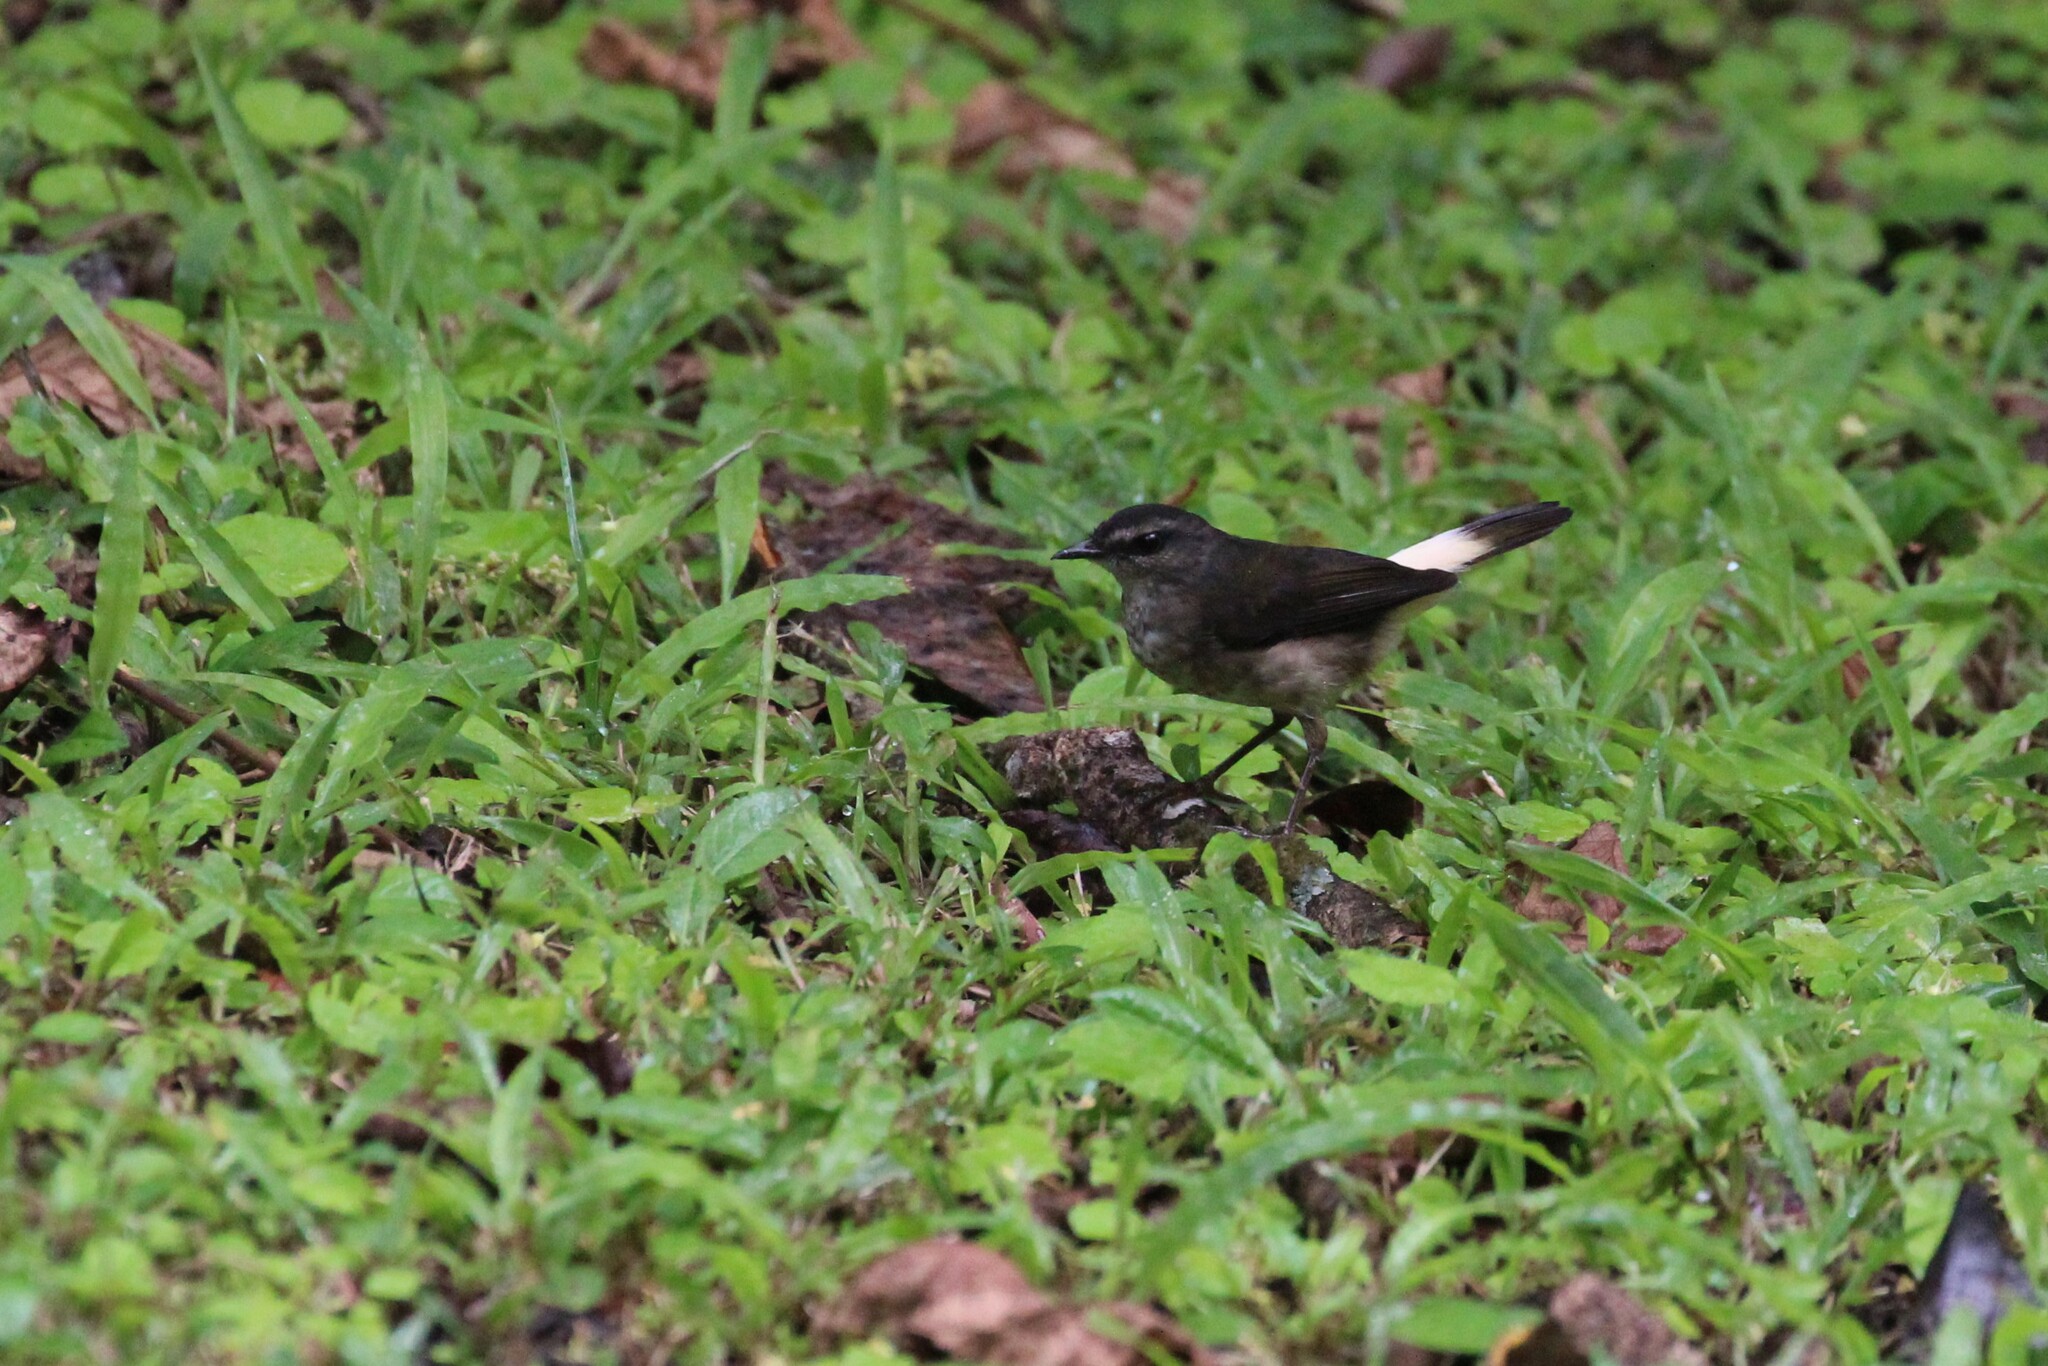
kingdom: Animalia
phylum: Chordata
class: Aves
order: Passeriformes
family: Parulidae
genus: Myiothlypis
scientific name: Myiothlypis fulvicauda
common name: Buff-rumped warbler
